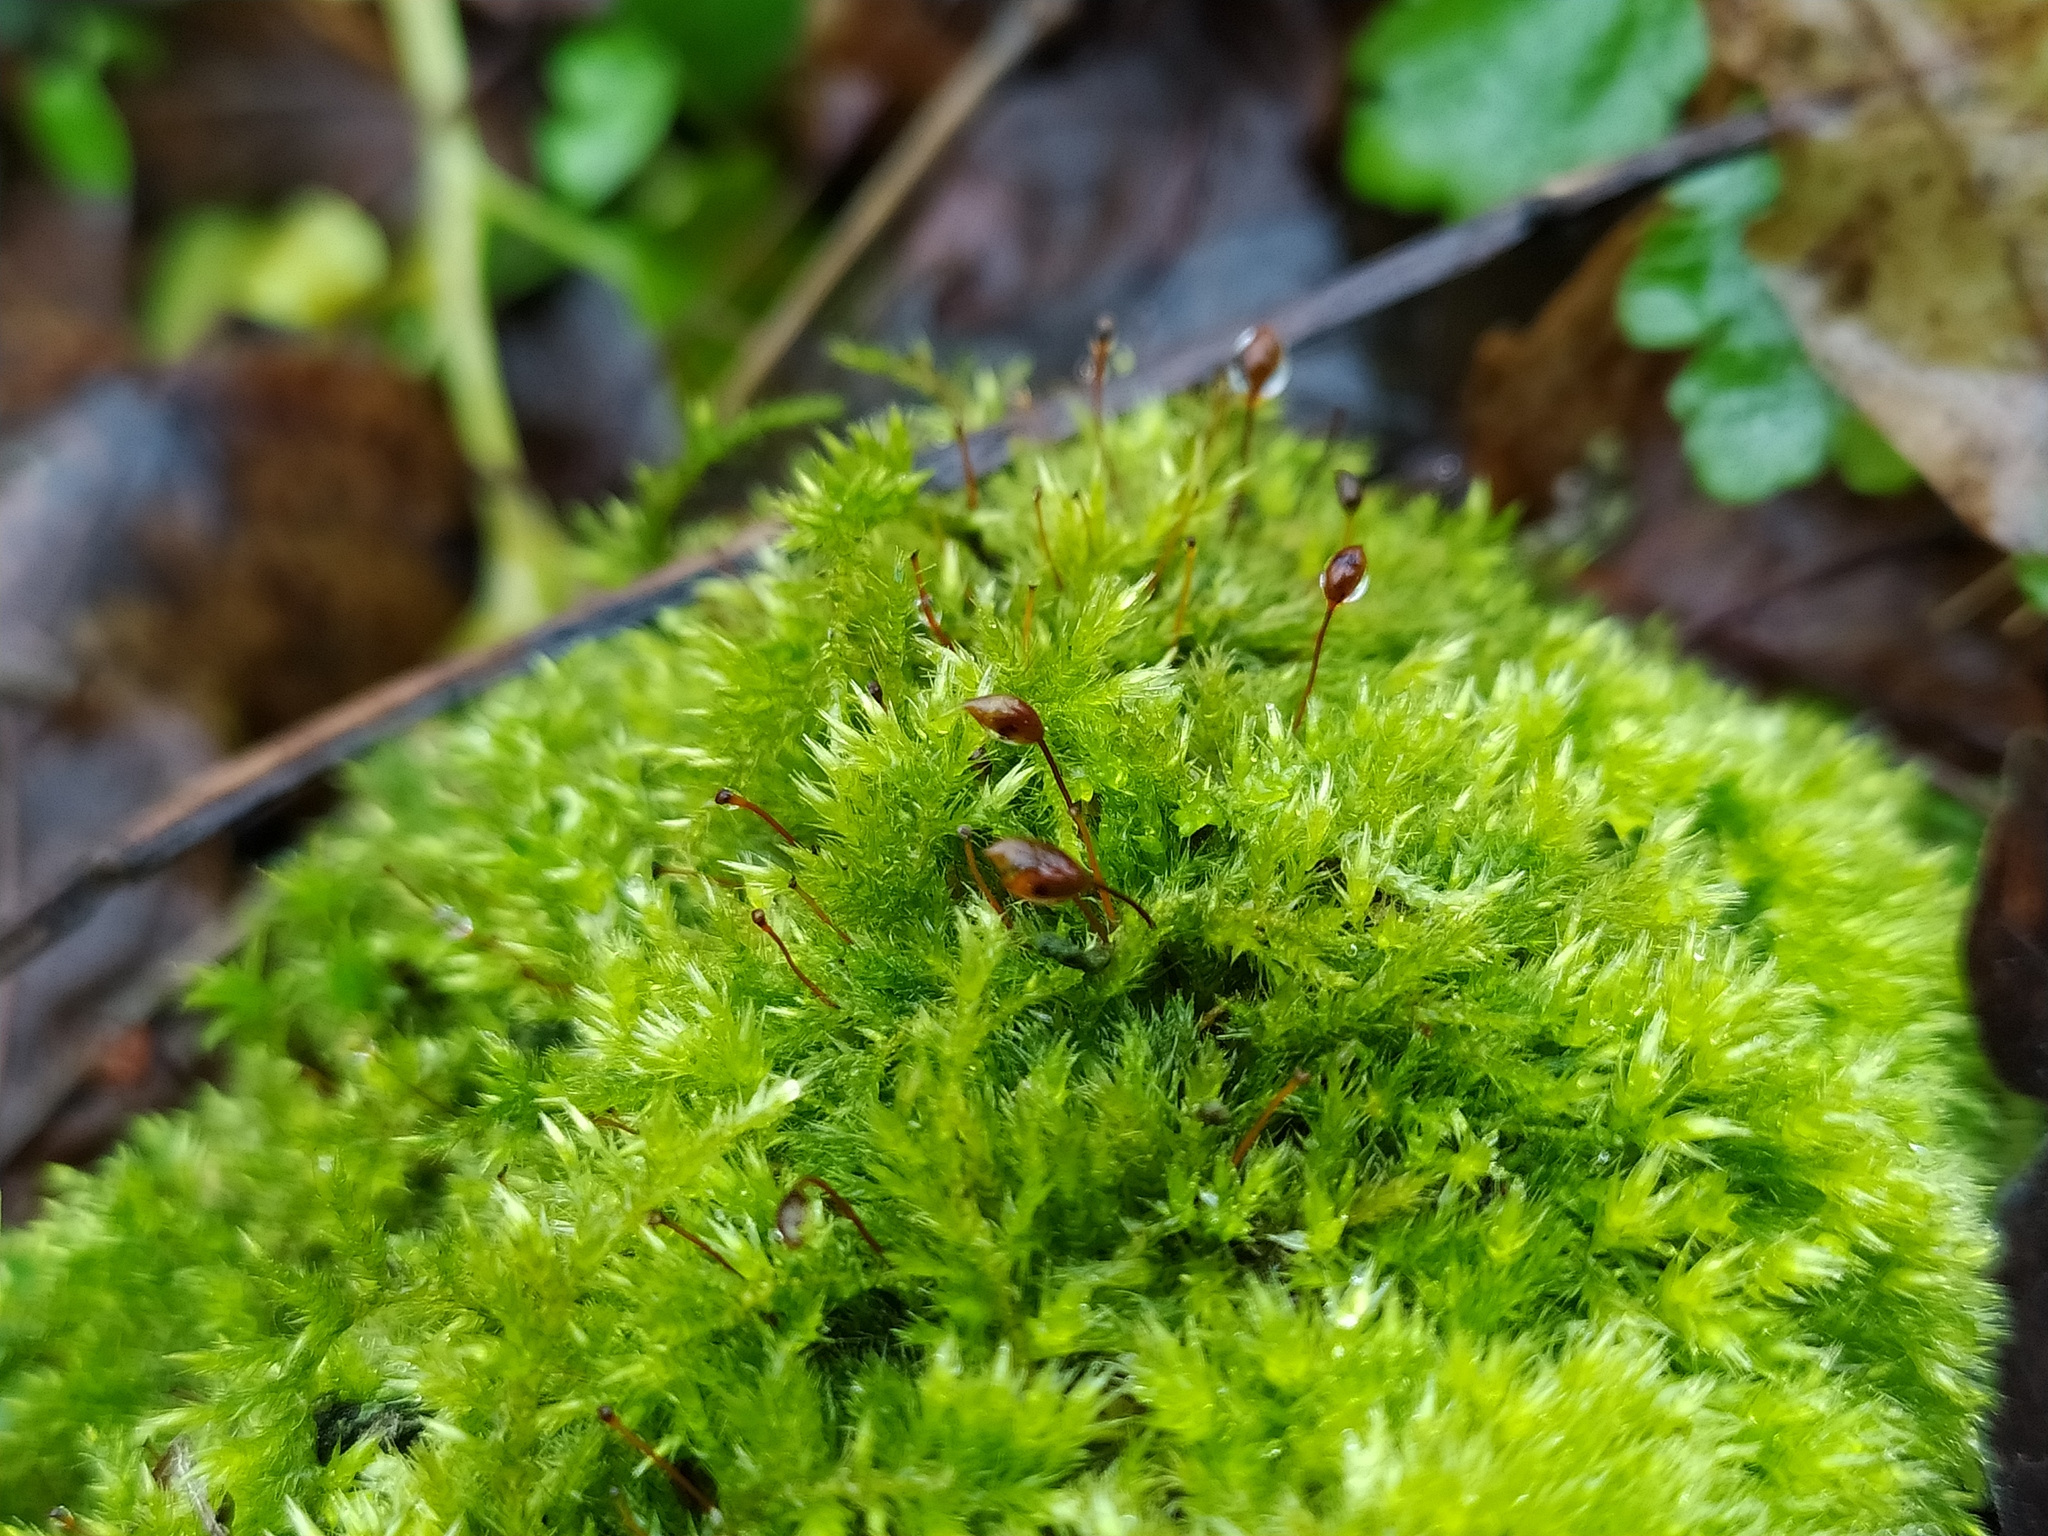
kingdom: Plantae
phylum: Bryophyta
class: Bryopsida
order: Hypnales
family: Brachytheciaceae
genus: Sciuro-hypnum
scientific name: Sciuro-hypnum populeum
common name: Matted feather-moss
